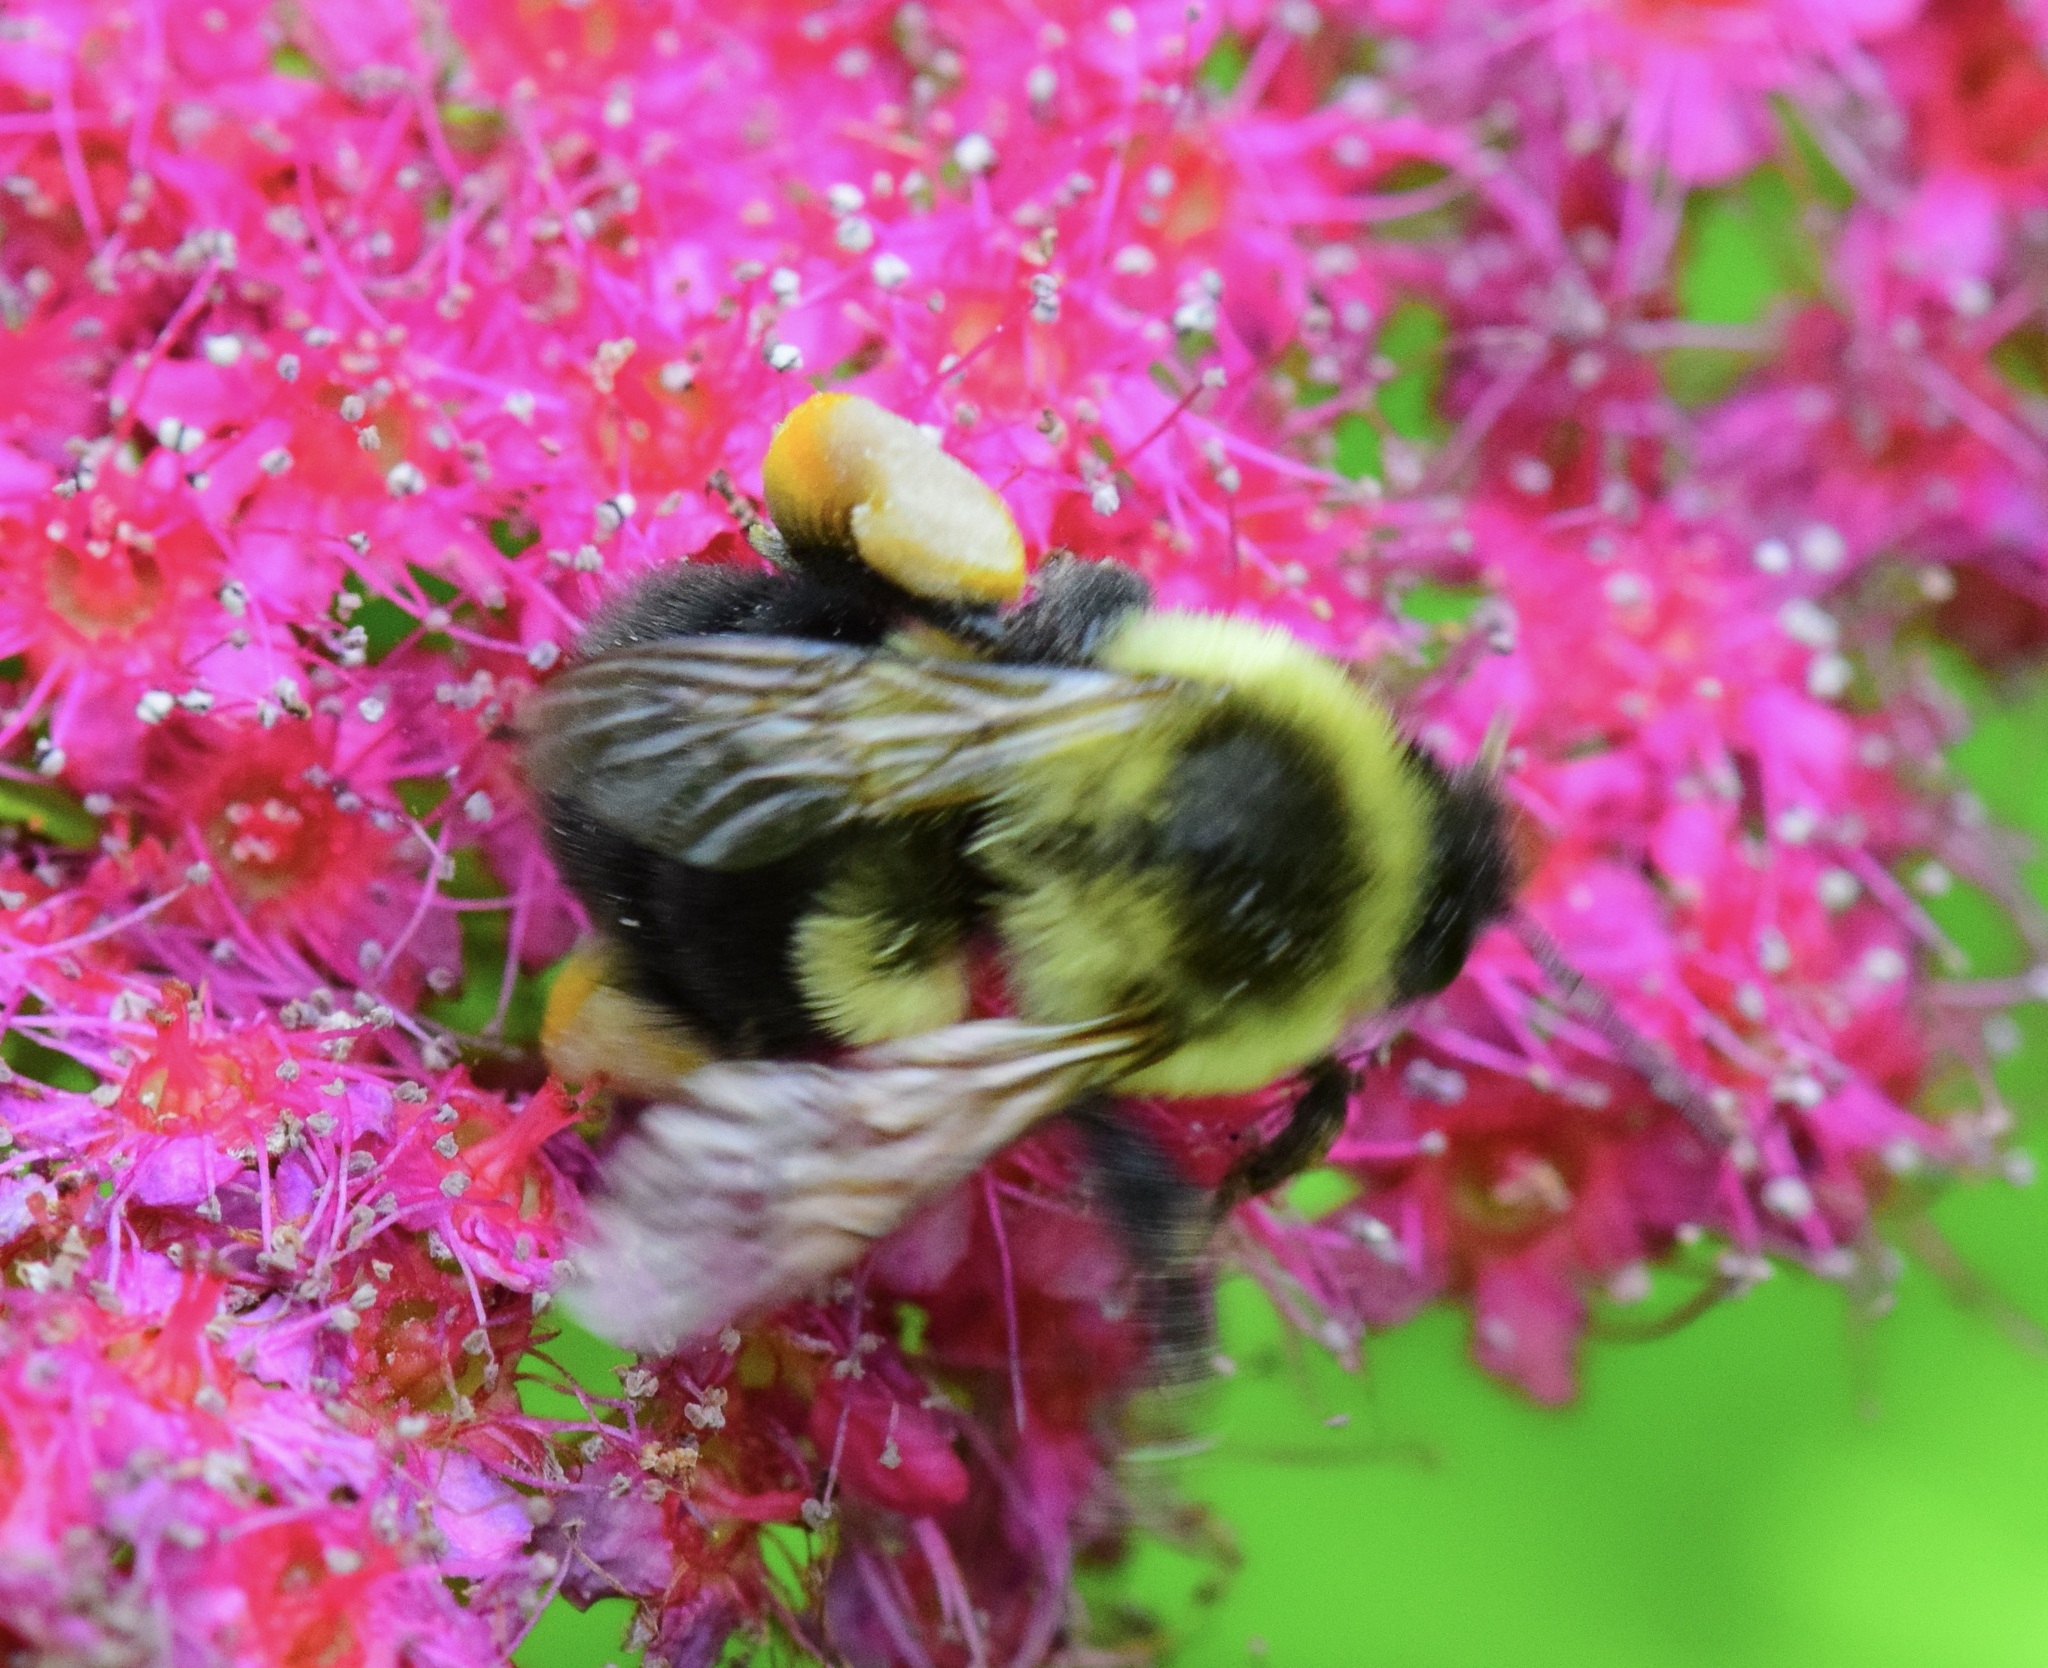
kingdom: Animalia
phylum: Arthropoda
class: Insecta
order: Hymenoptera
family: Apidae
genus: Bombus
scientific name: Bombus impatiens
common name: Common eastern bumble bee
